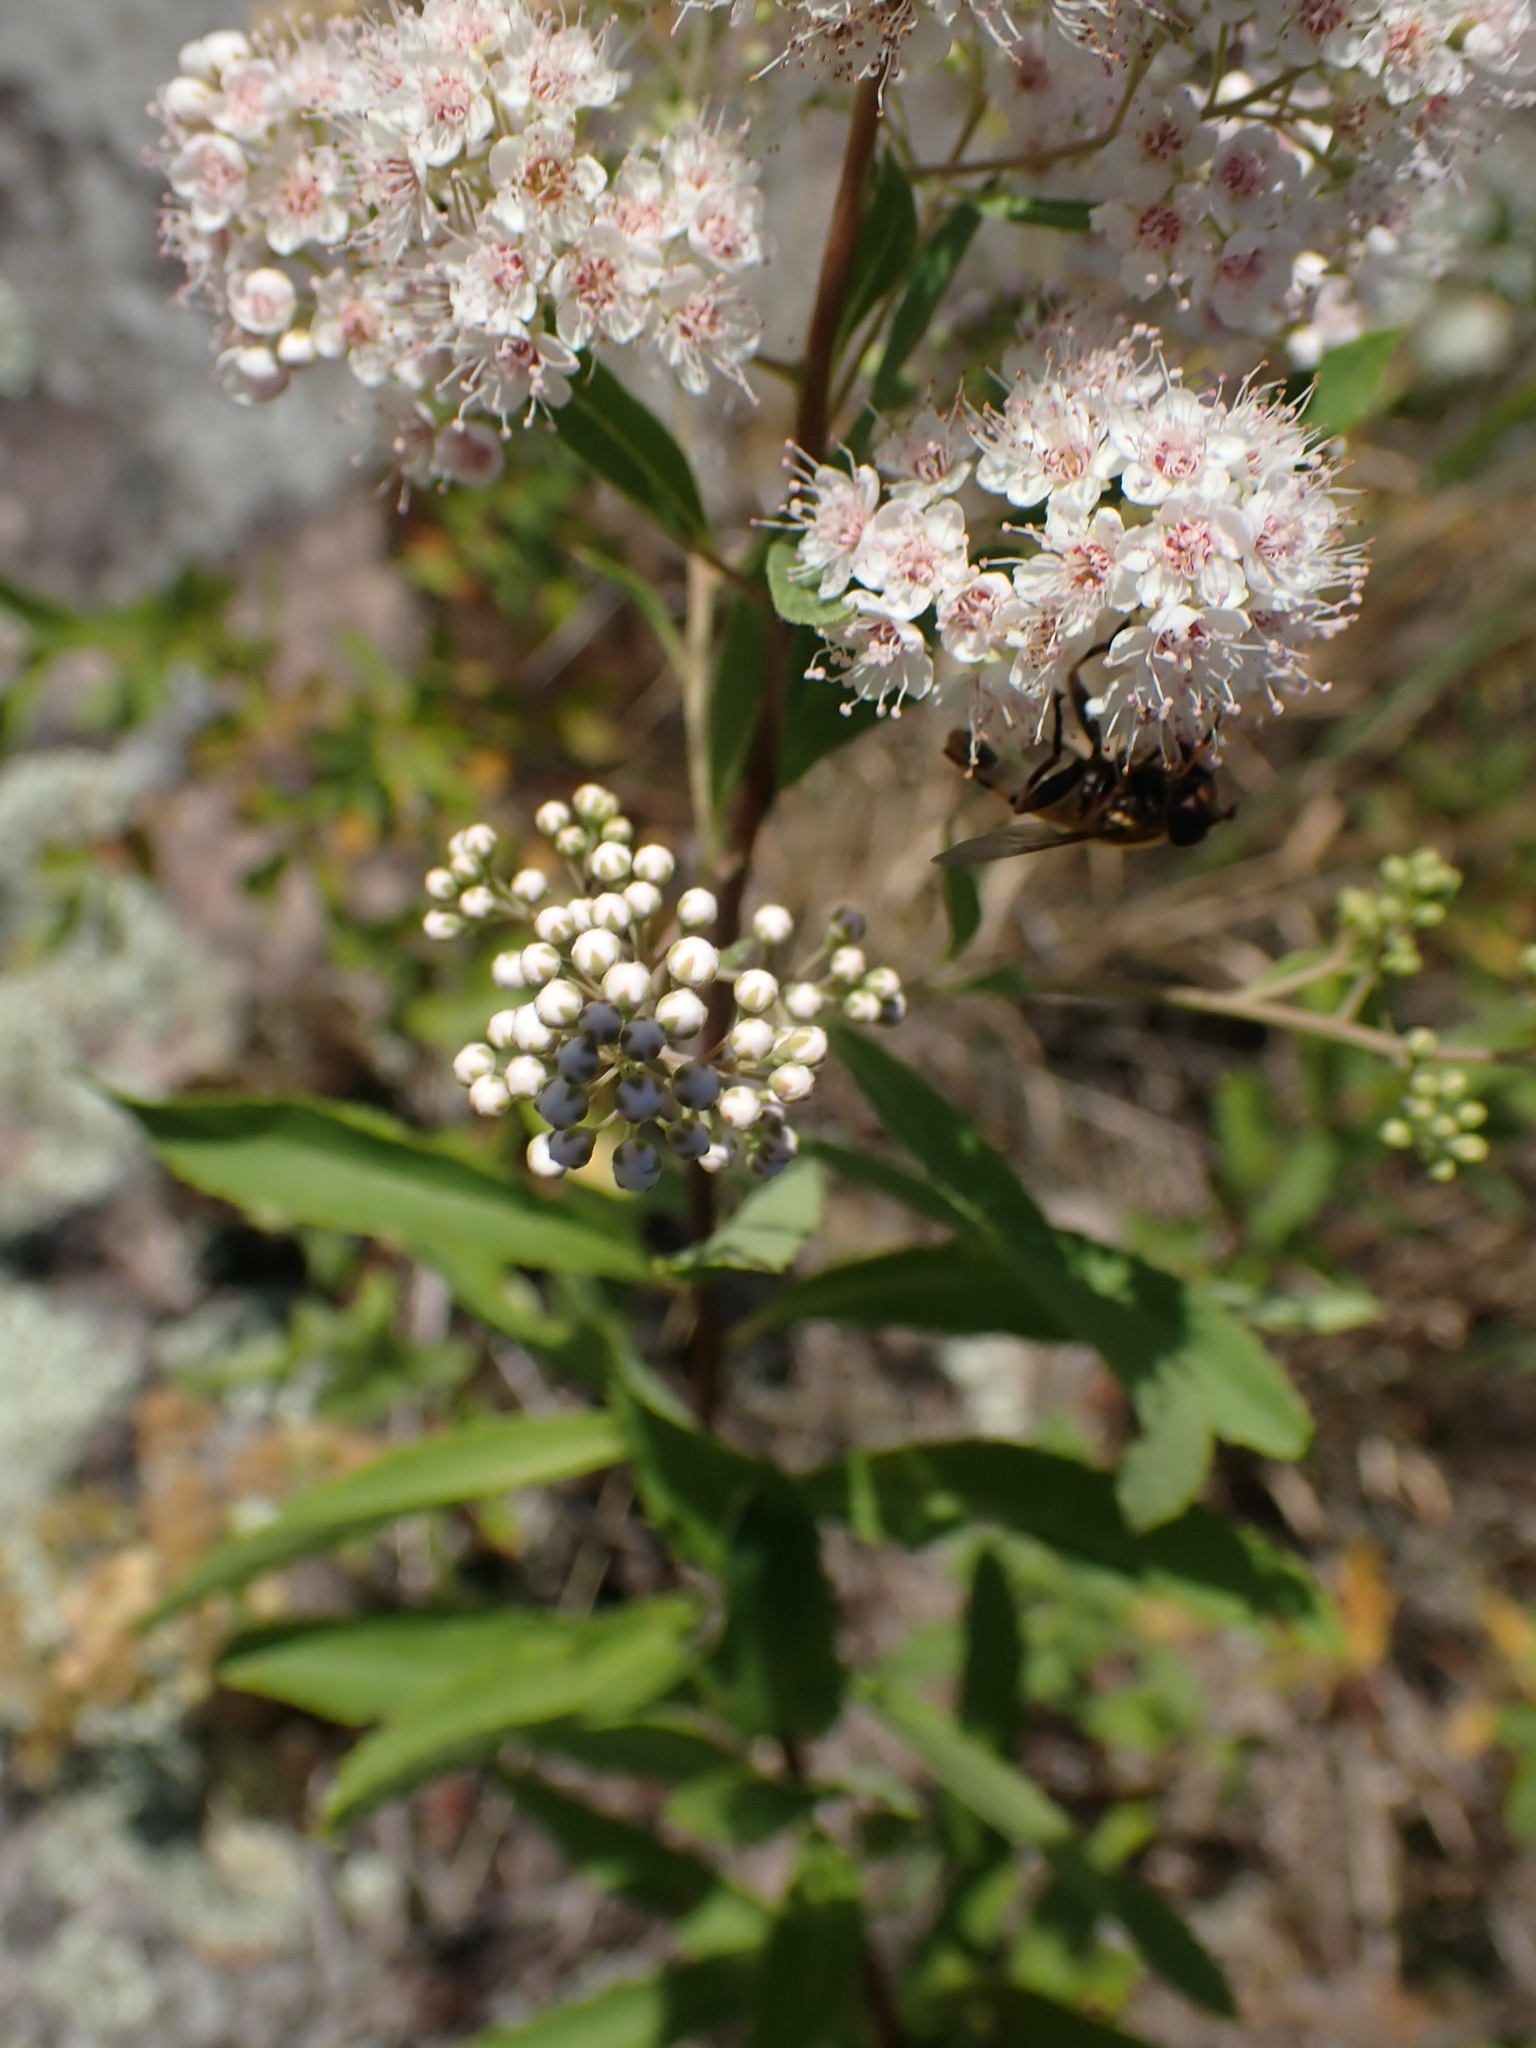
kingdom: Plantae
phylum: Tracheophyta
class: Magnoliopsida
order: Rosales
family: Rosaceae
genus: Spiraea
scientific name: Spiraea alba
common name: Pale bridewort
